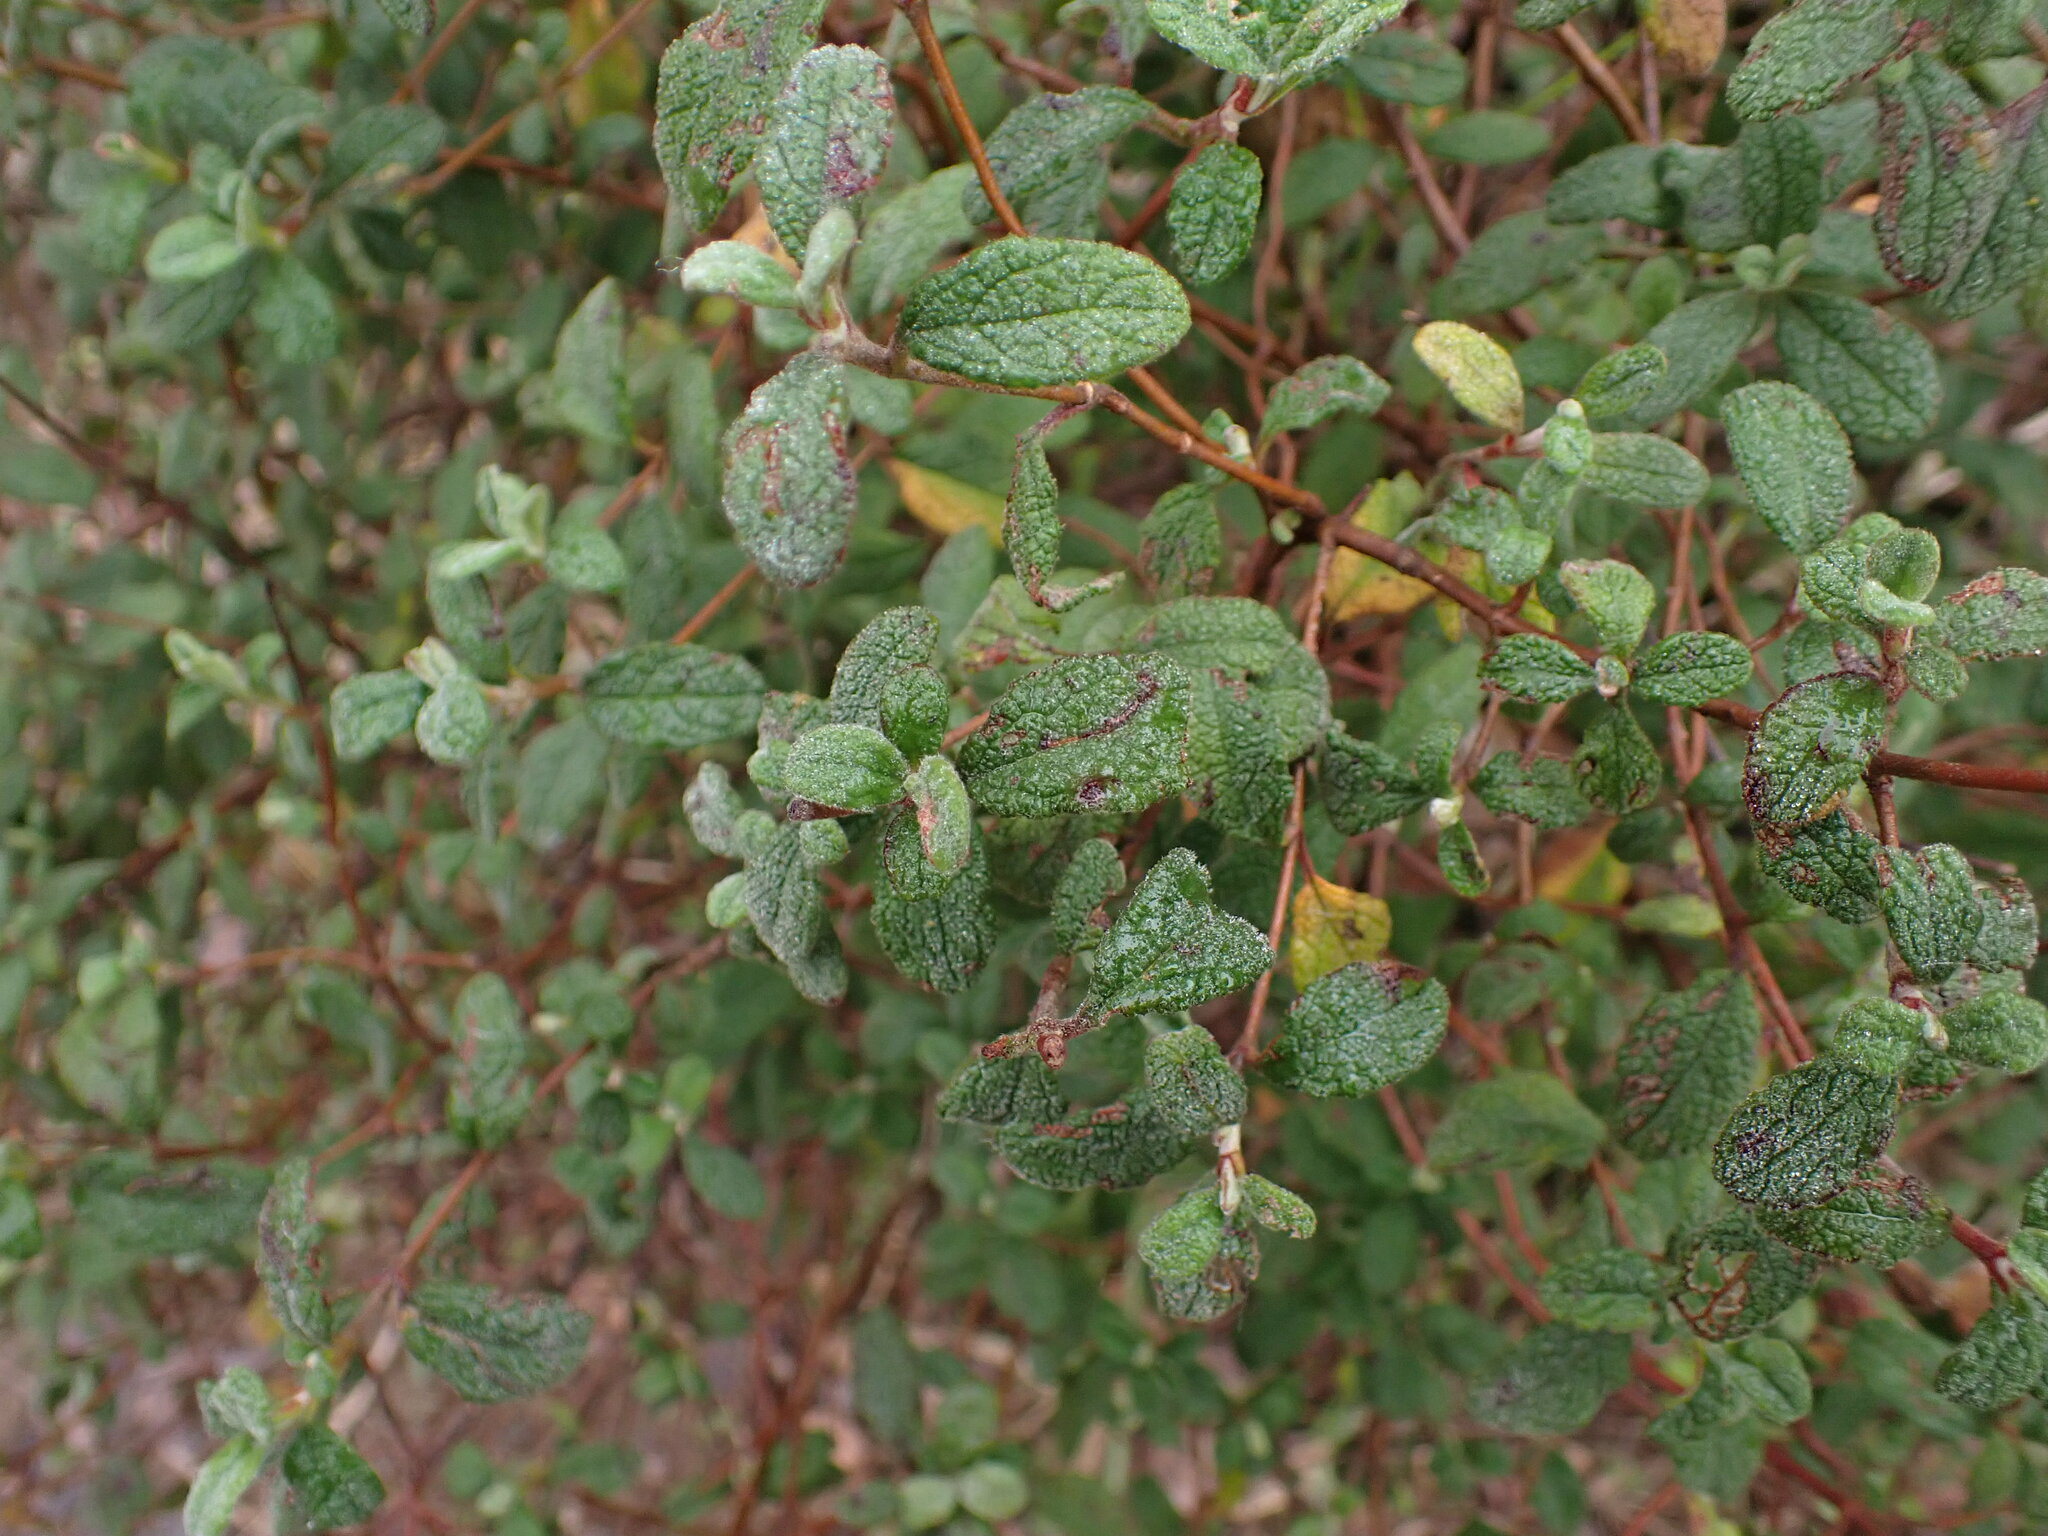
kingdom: Plantae
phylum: Tracheophyta
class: Magnoliopsida
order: Malvales
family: Cistaceae
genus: Cistus
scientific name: Cistus salviifolius
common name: Salvia cistus
